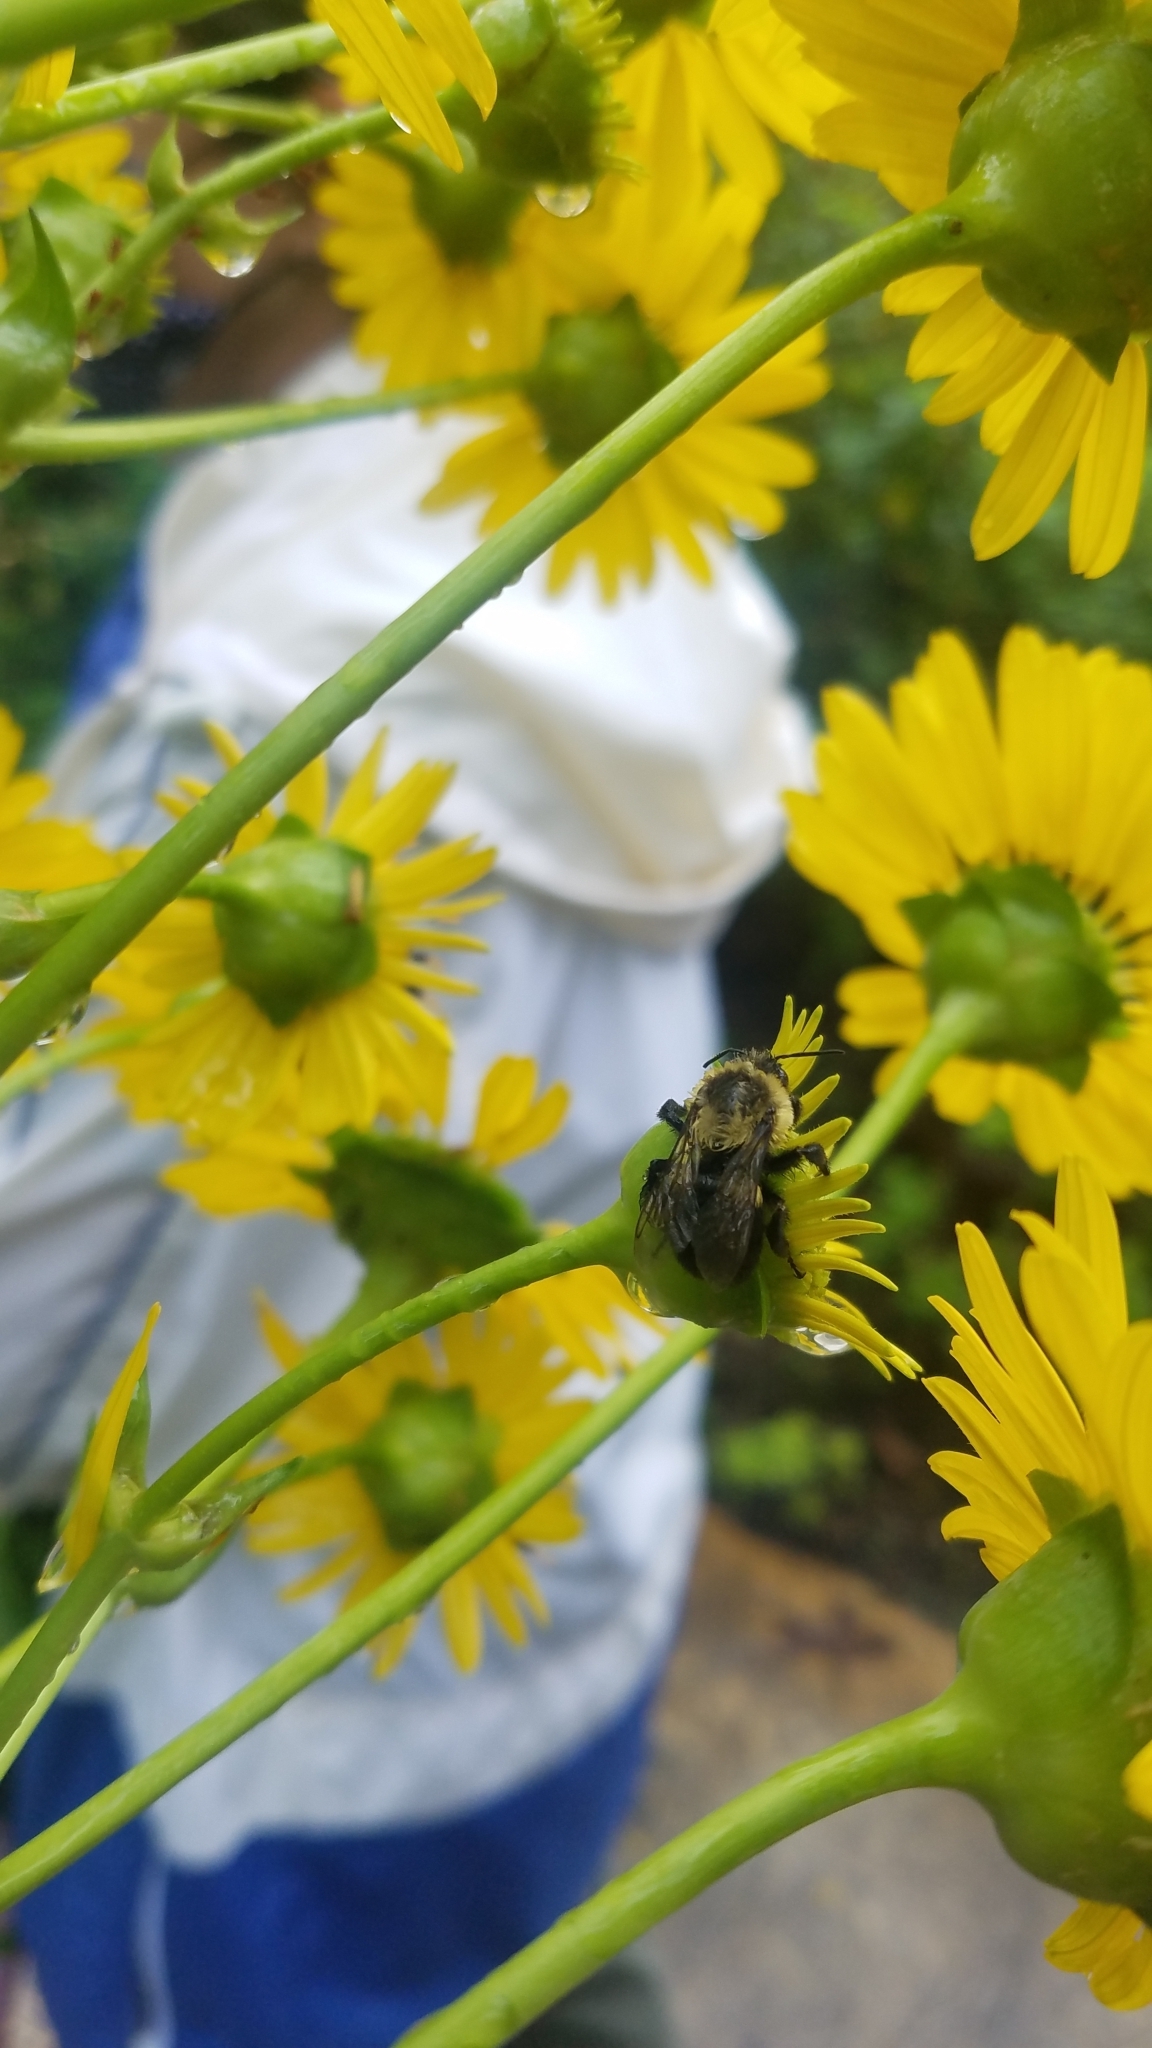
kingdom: Animalia
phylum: Arthropoda
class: Insecta
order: Hymenoptera
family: Apidae
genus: Bombus
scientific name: Bombus impatiens
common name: Common eastern bumble bee
